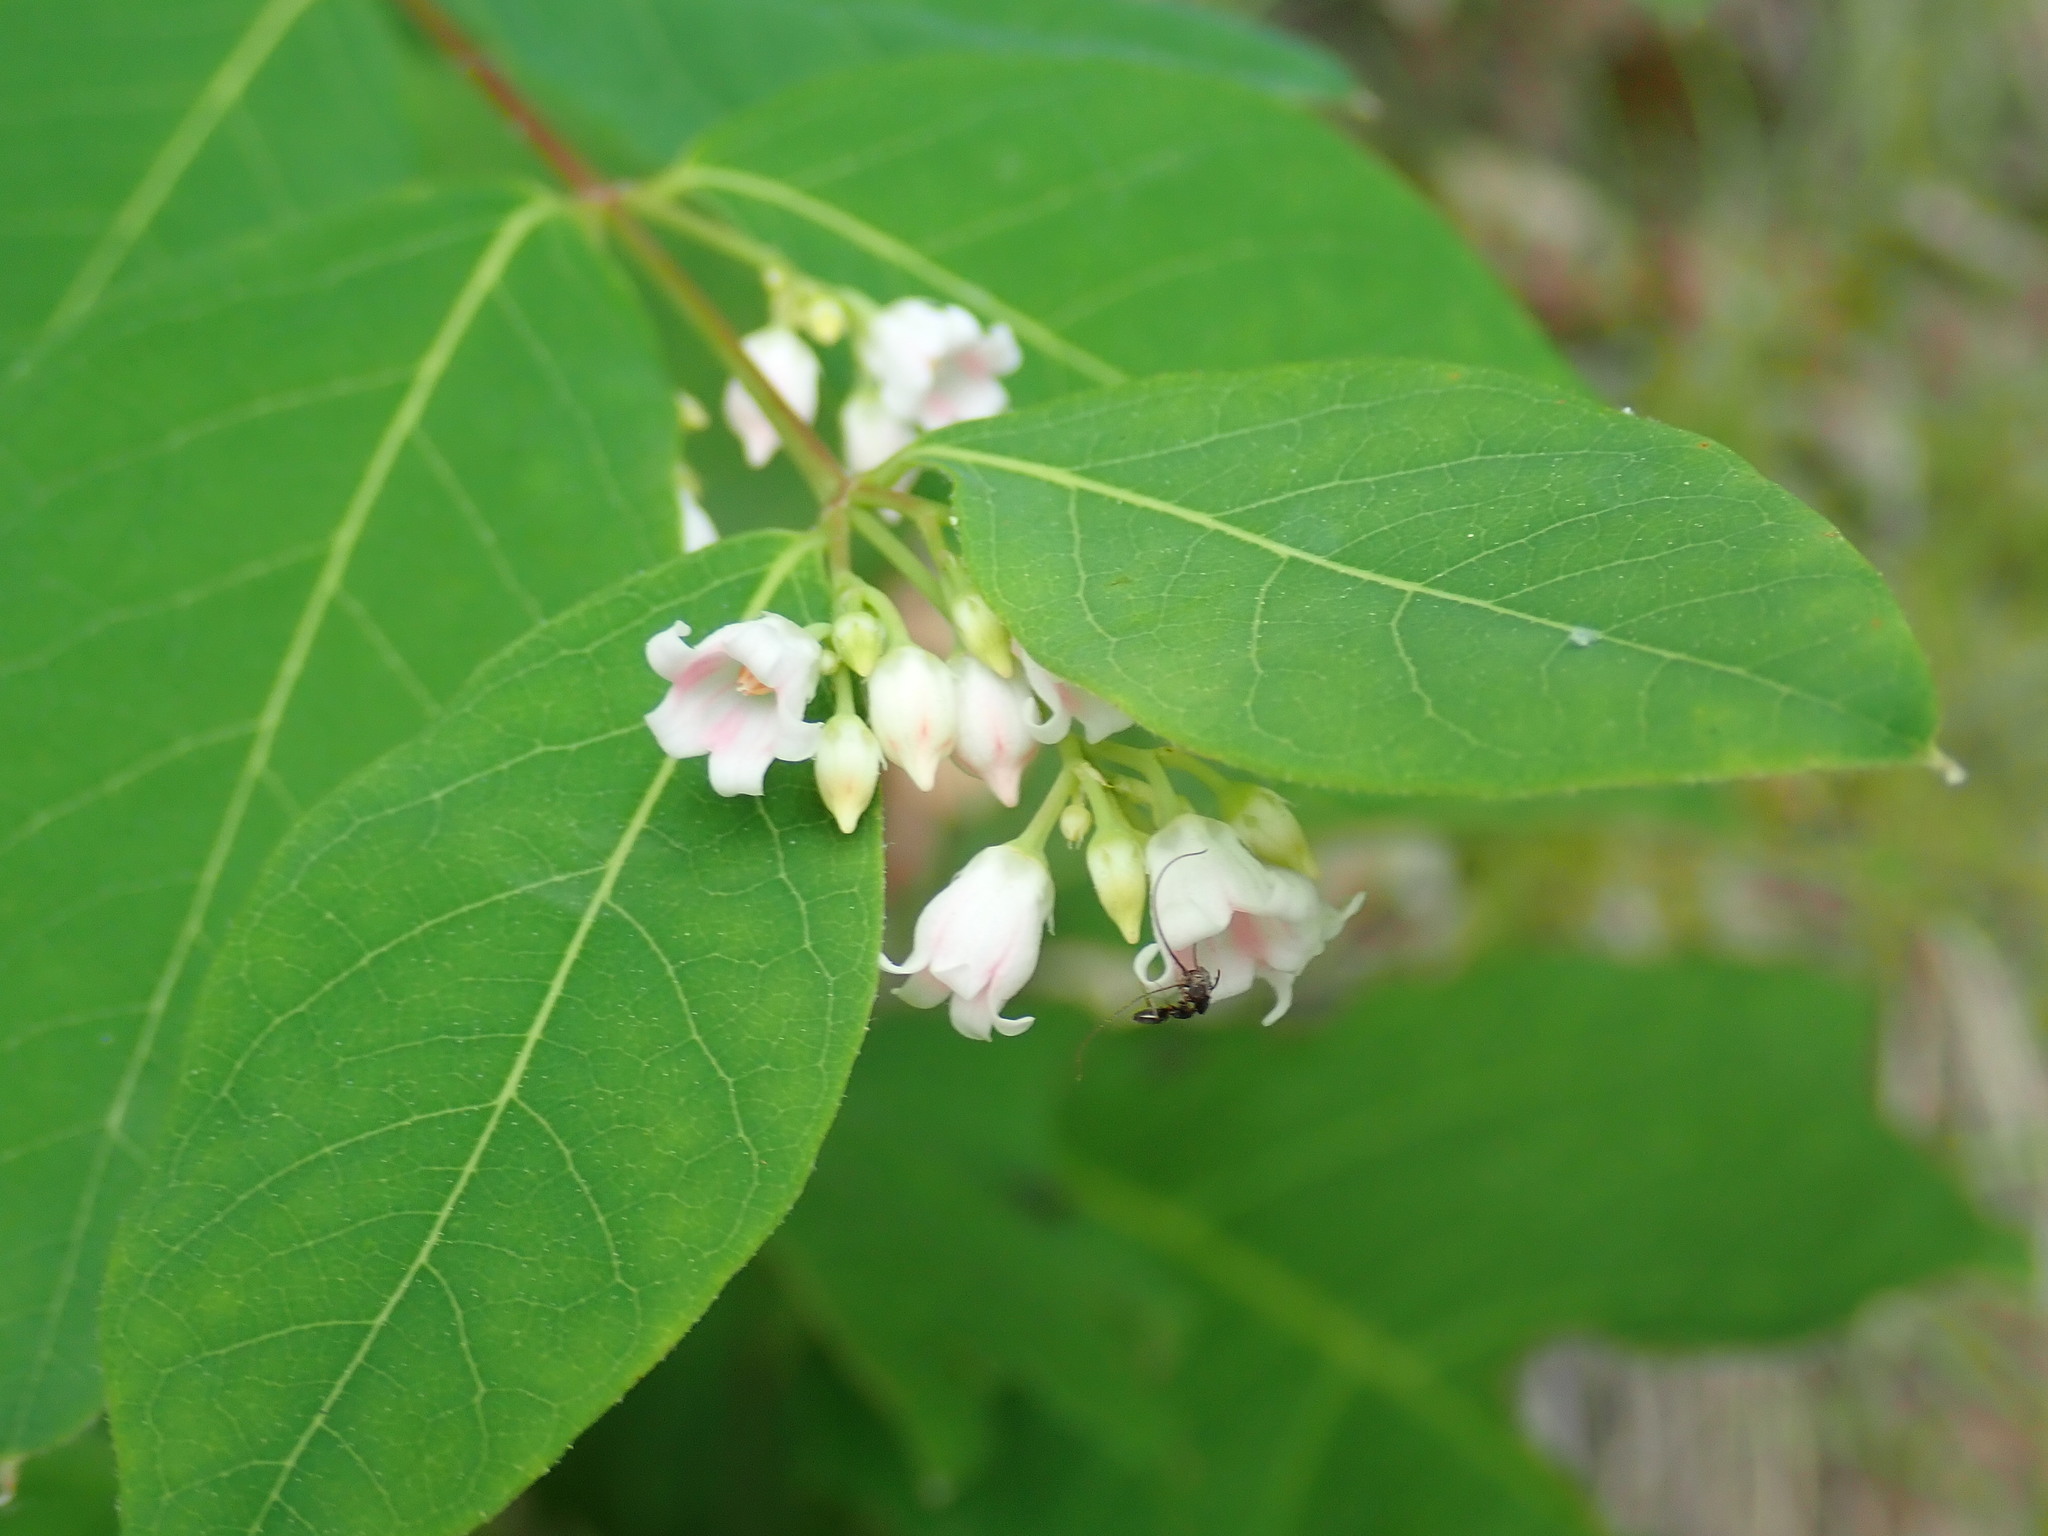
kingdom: Plantae
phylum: Tracheophyta
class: Magnoliopsida
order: Gentianales
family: Apocynaceae
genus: Apocynum
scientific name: Apocynum androsaemifolium
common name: Spreading dogbane
